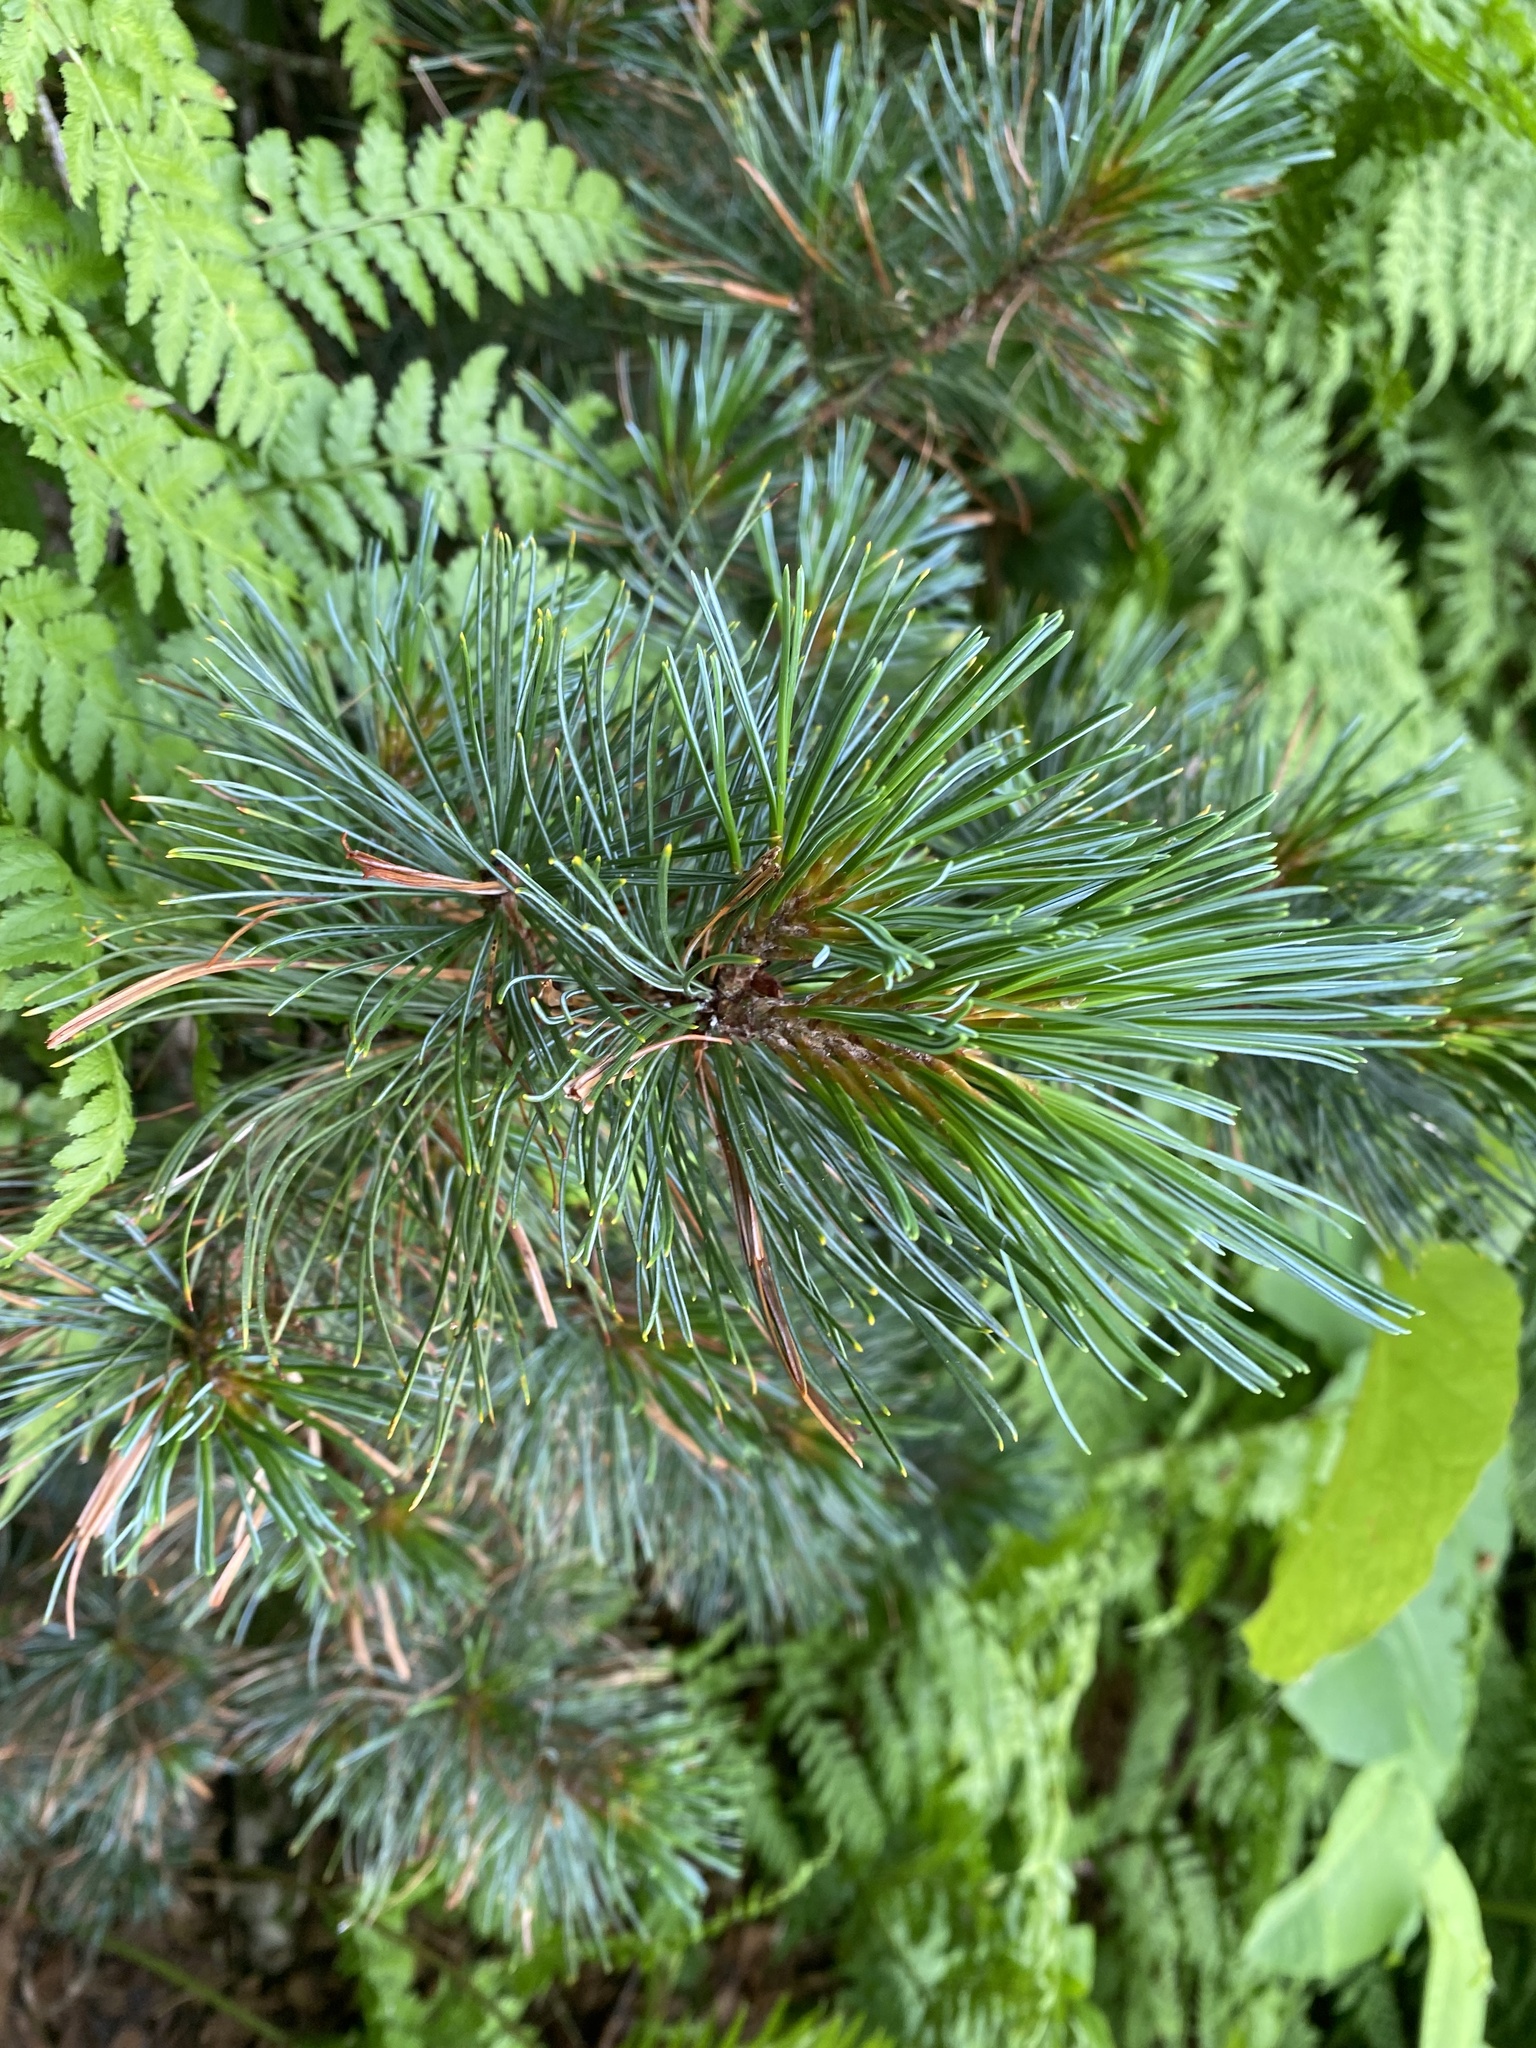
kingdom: Plantae
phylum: Tracheophyta
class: Pinopsida
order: Pinales
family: Pinaceae
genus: Pinus
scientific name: Pinus pumila
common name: Dwarf siberian pine
